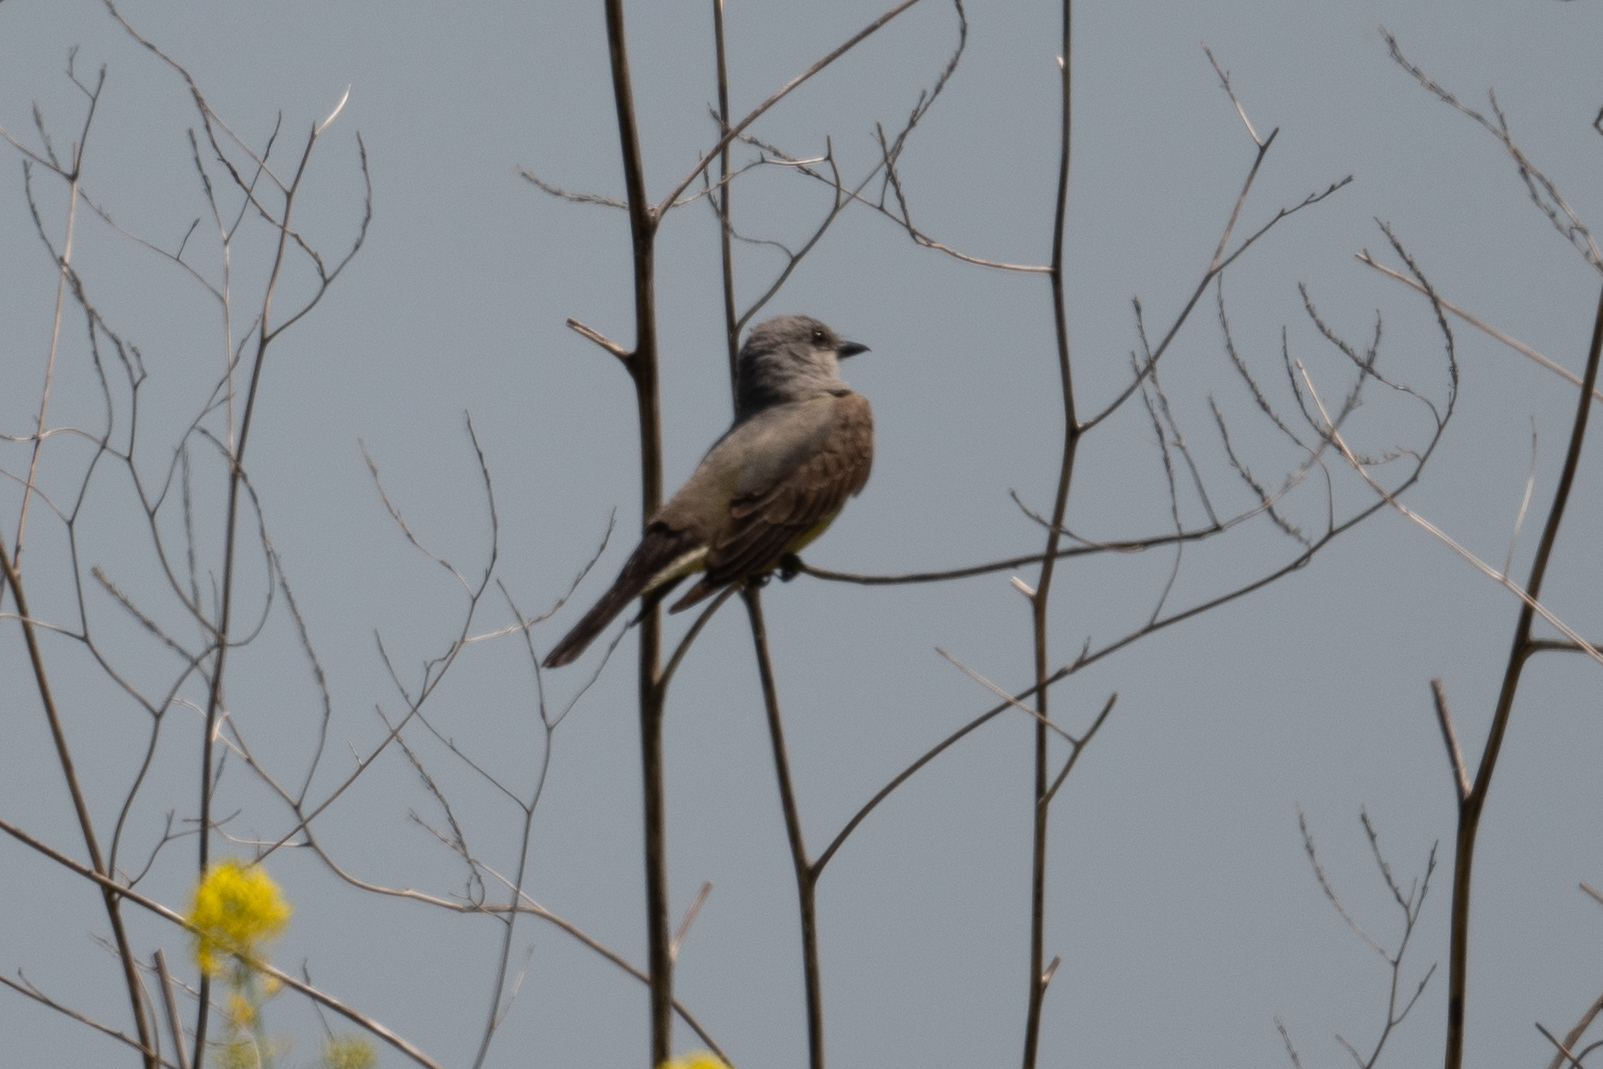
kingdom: Animalia
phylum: Chordata
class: Aves
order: Passeriformes
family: Tyrannidae
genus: Tyrannus
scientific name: Tyrannus verticalis
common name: Western kingbird
